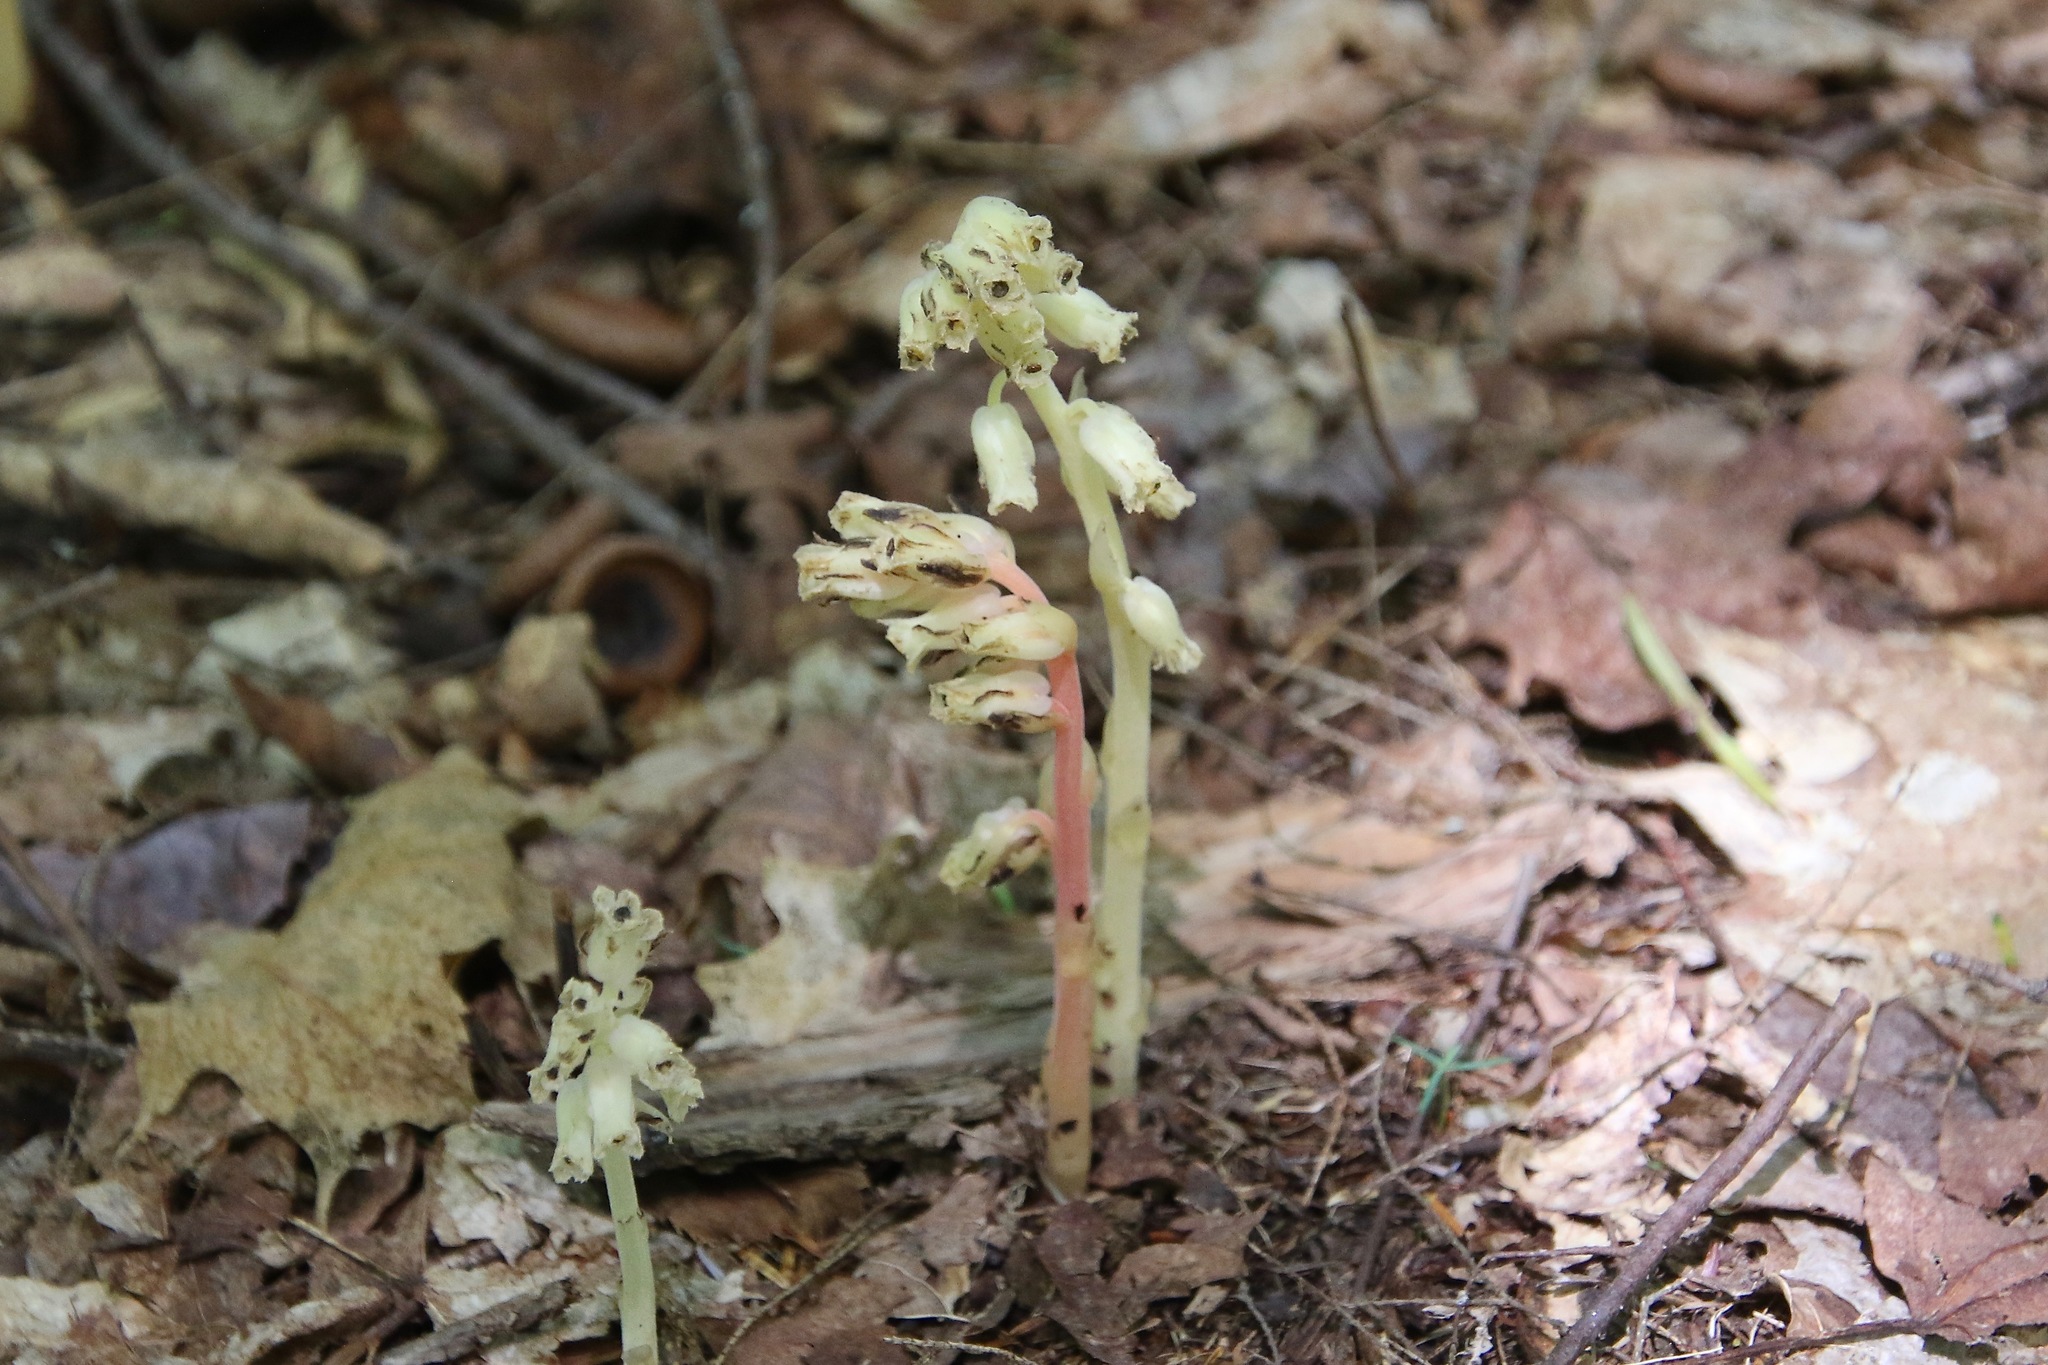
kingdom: Plantae
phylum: Tracheophyta
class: Magnoliopsida
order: Ericales
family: Ericaceae
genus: Hypopitys
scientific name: Hypopitys monotropa
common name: Yellow bird's-nest
